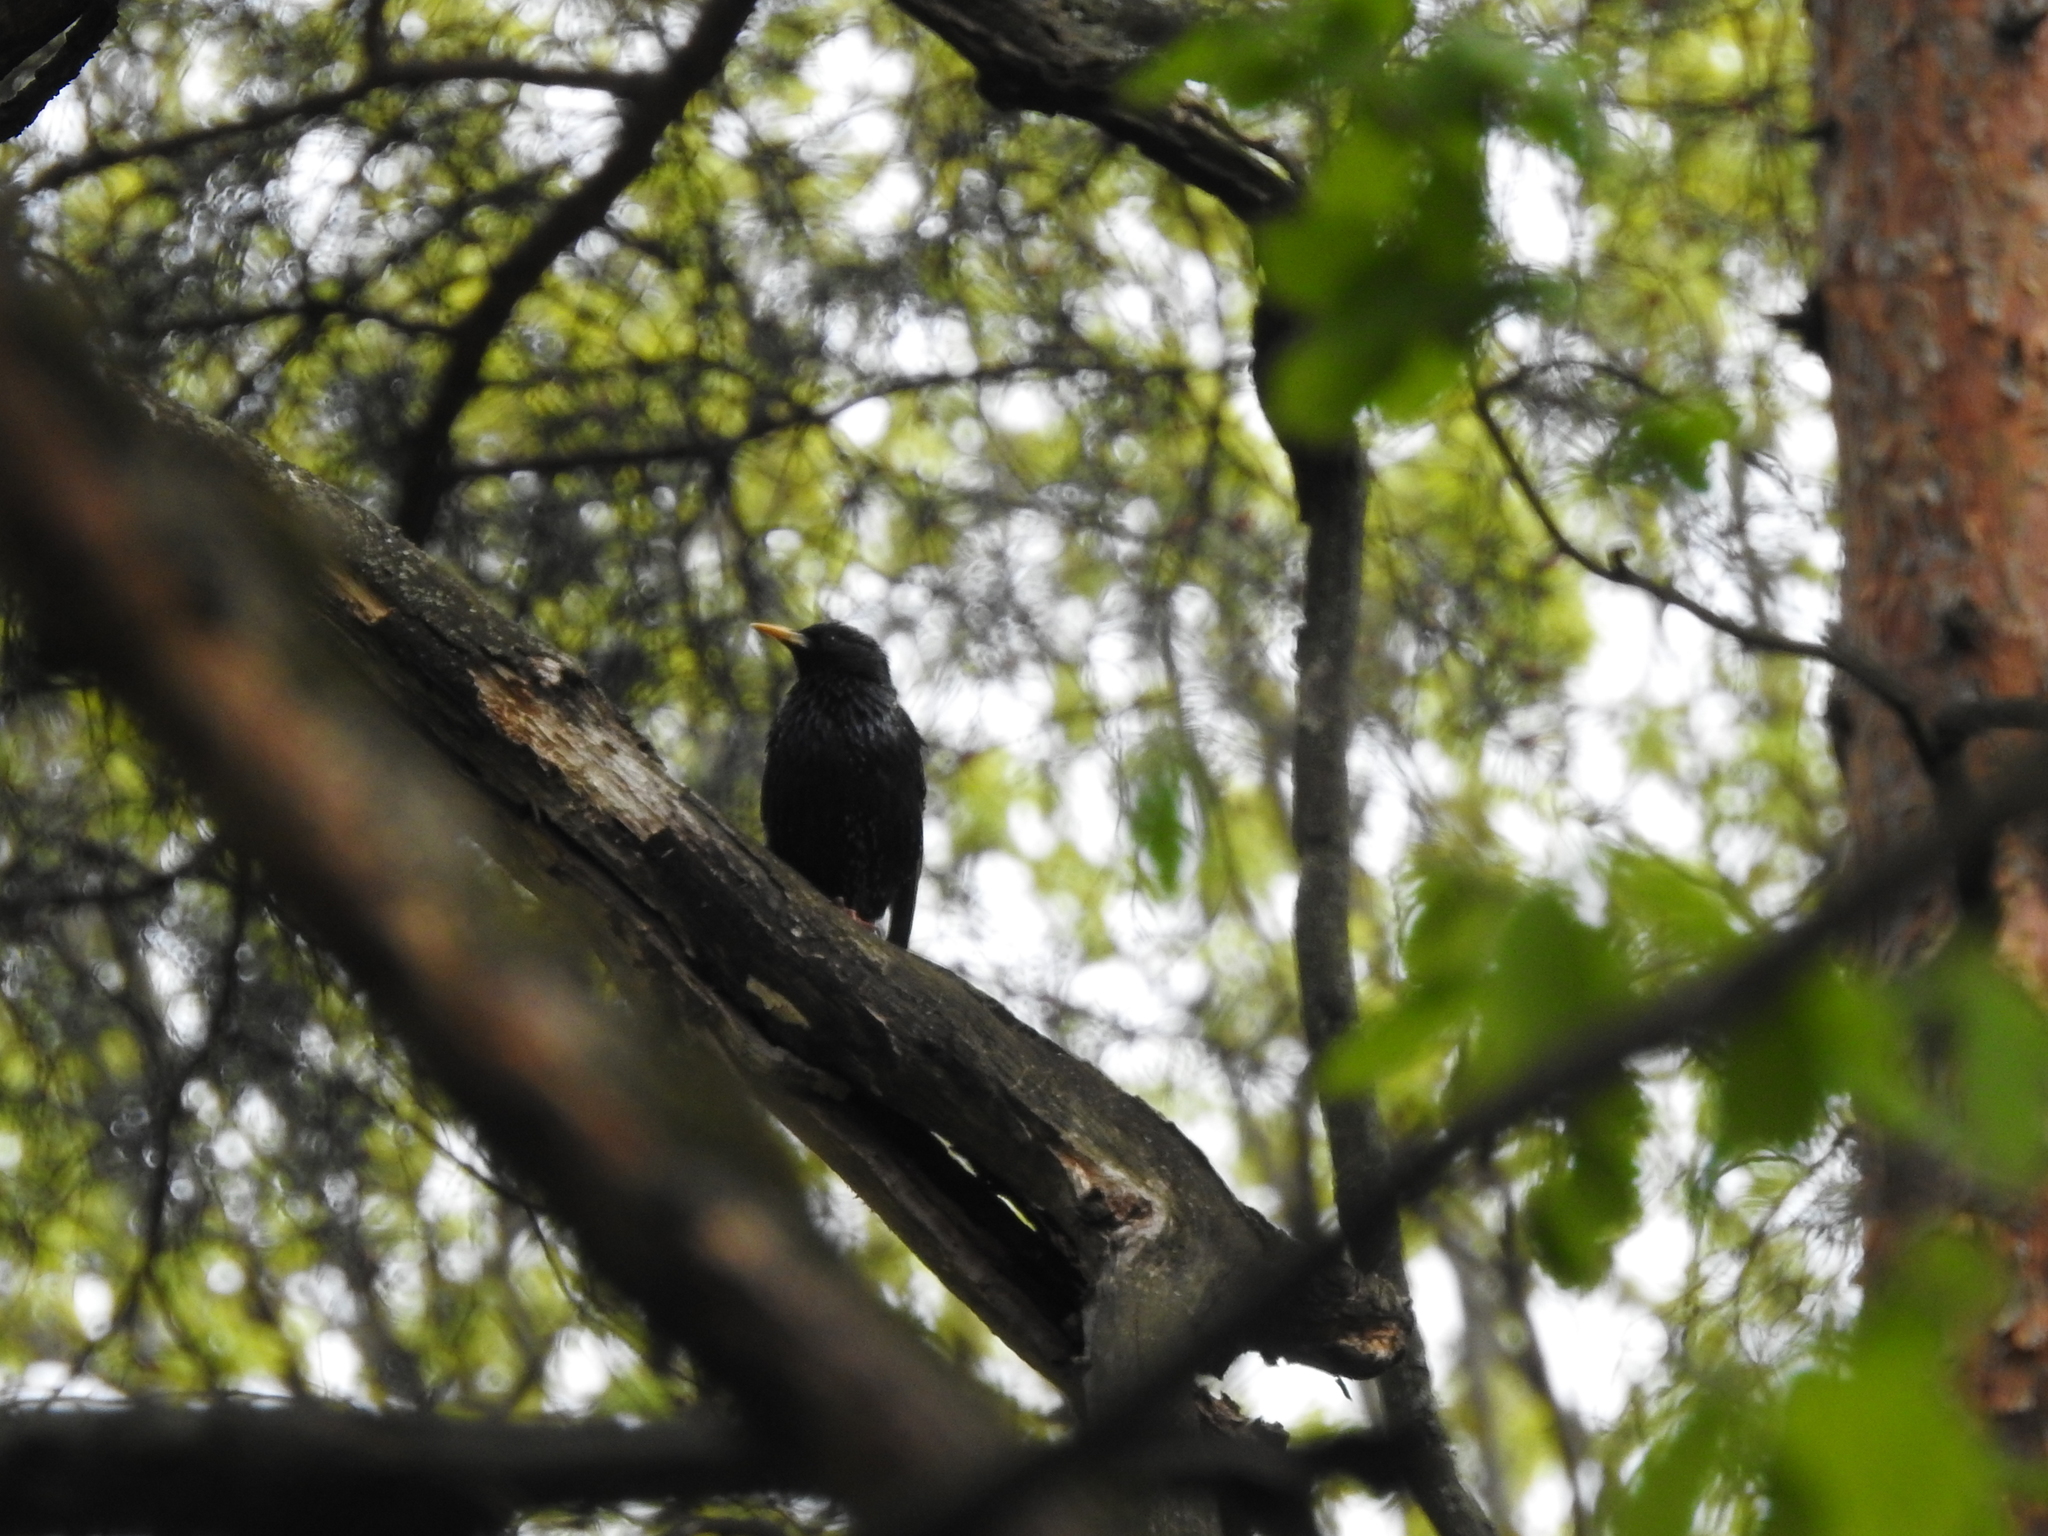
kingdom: Animalia
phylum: Chordata
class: Aves
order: Passeriformes
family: Sturnidae
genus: Sturnus
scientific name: Sturnus vulgaris
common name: Common starling
